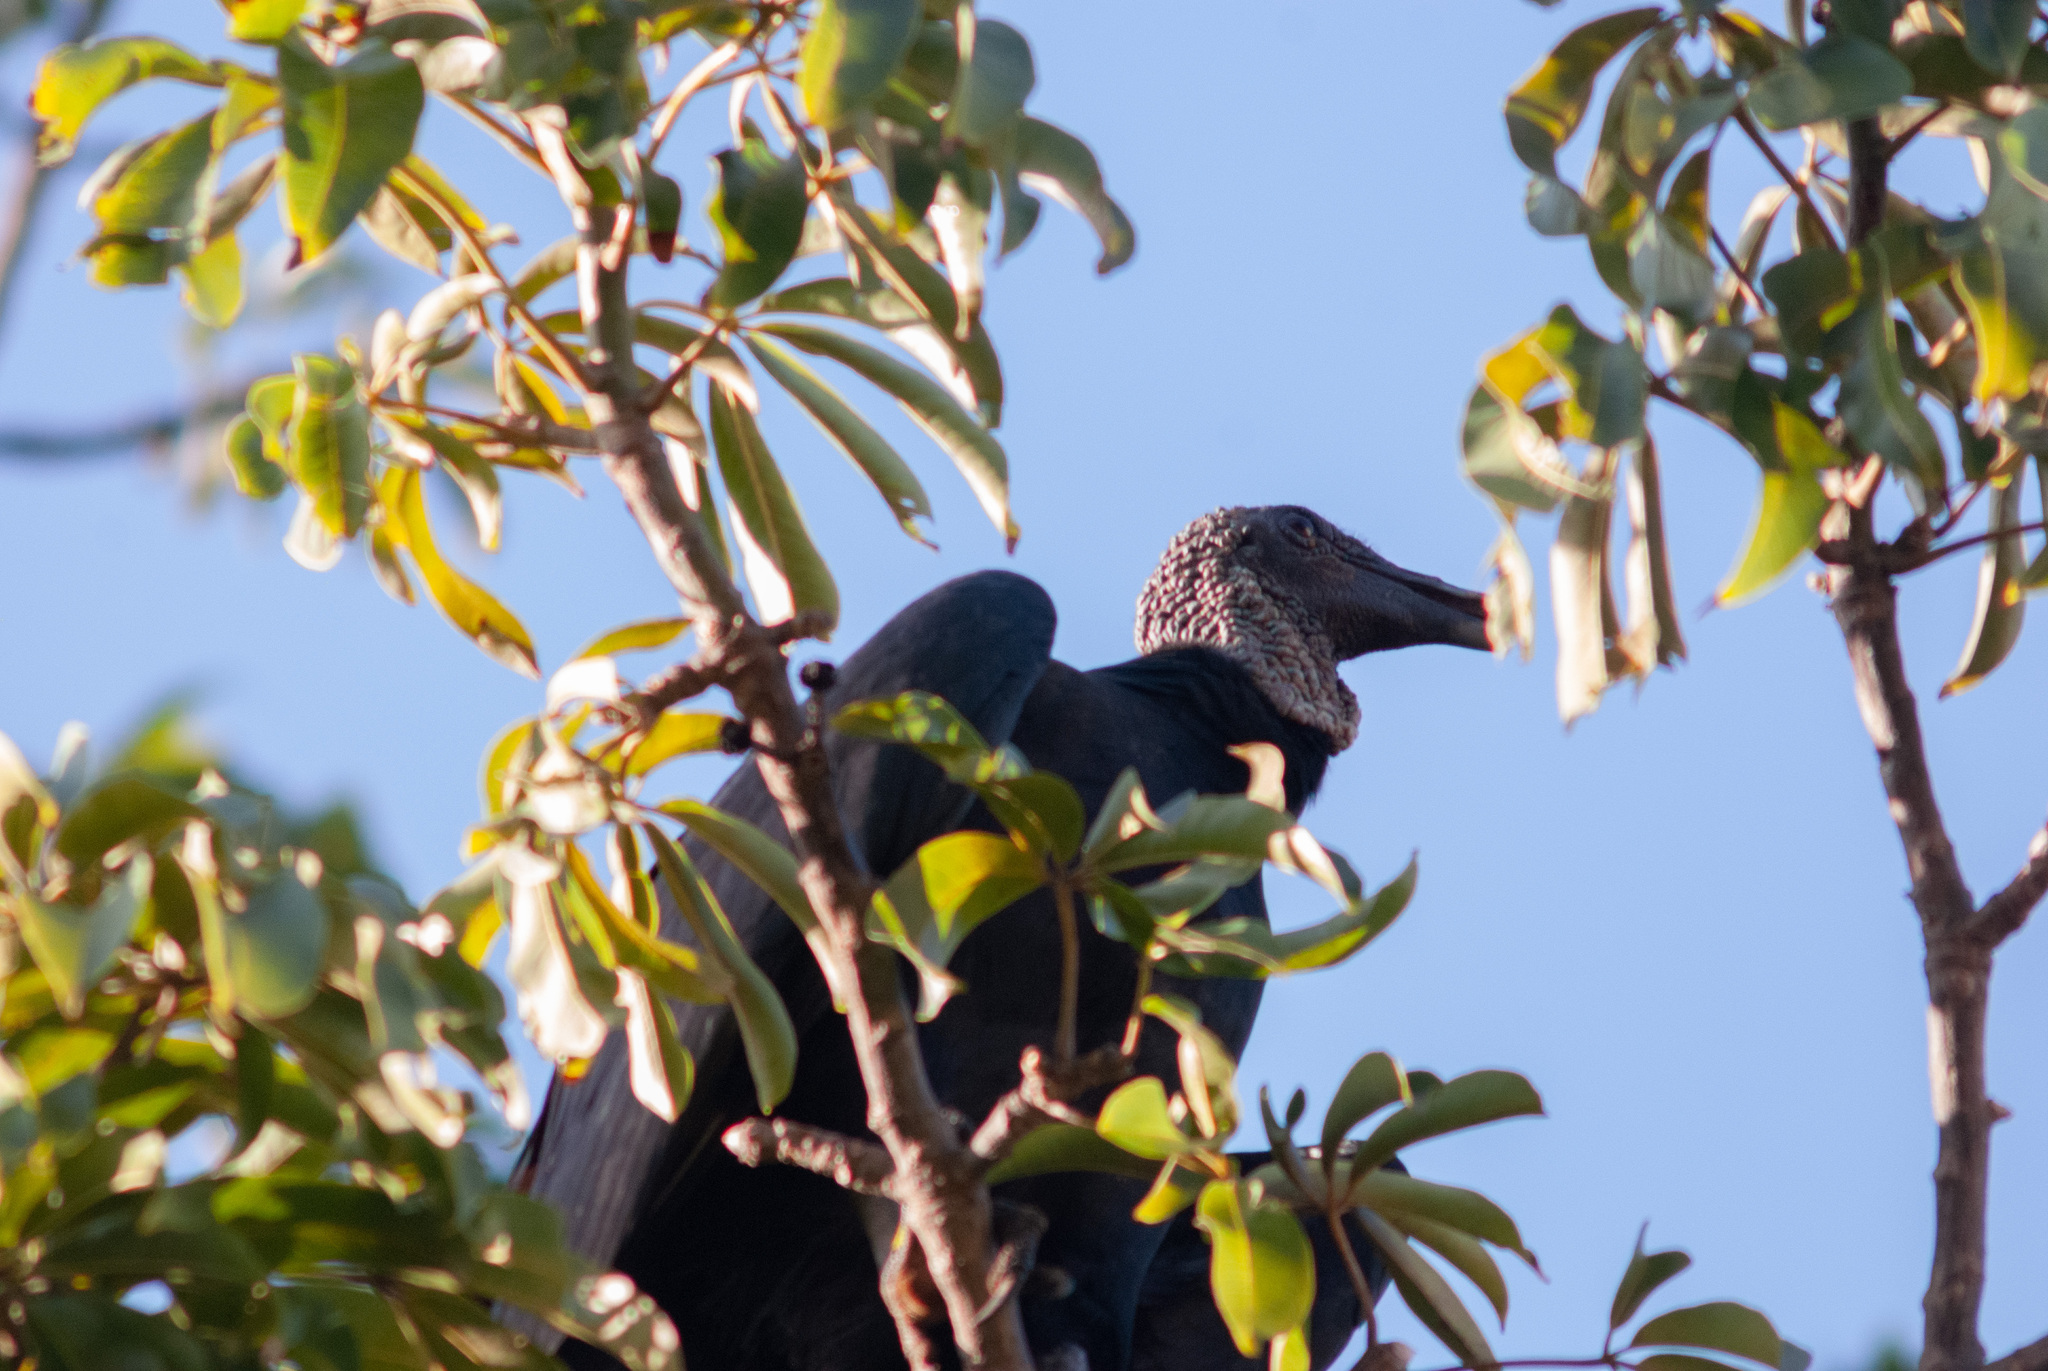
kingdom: Animalia
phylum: Chordata
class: Aves
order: Accipitriformes
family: Cathartidae
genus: Coragyps
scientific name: Coragyps atratus
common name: Black vulture
